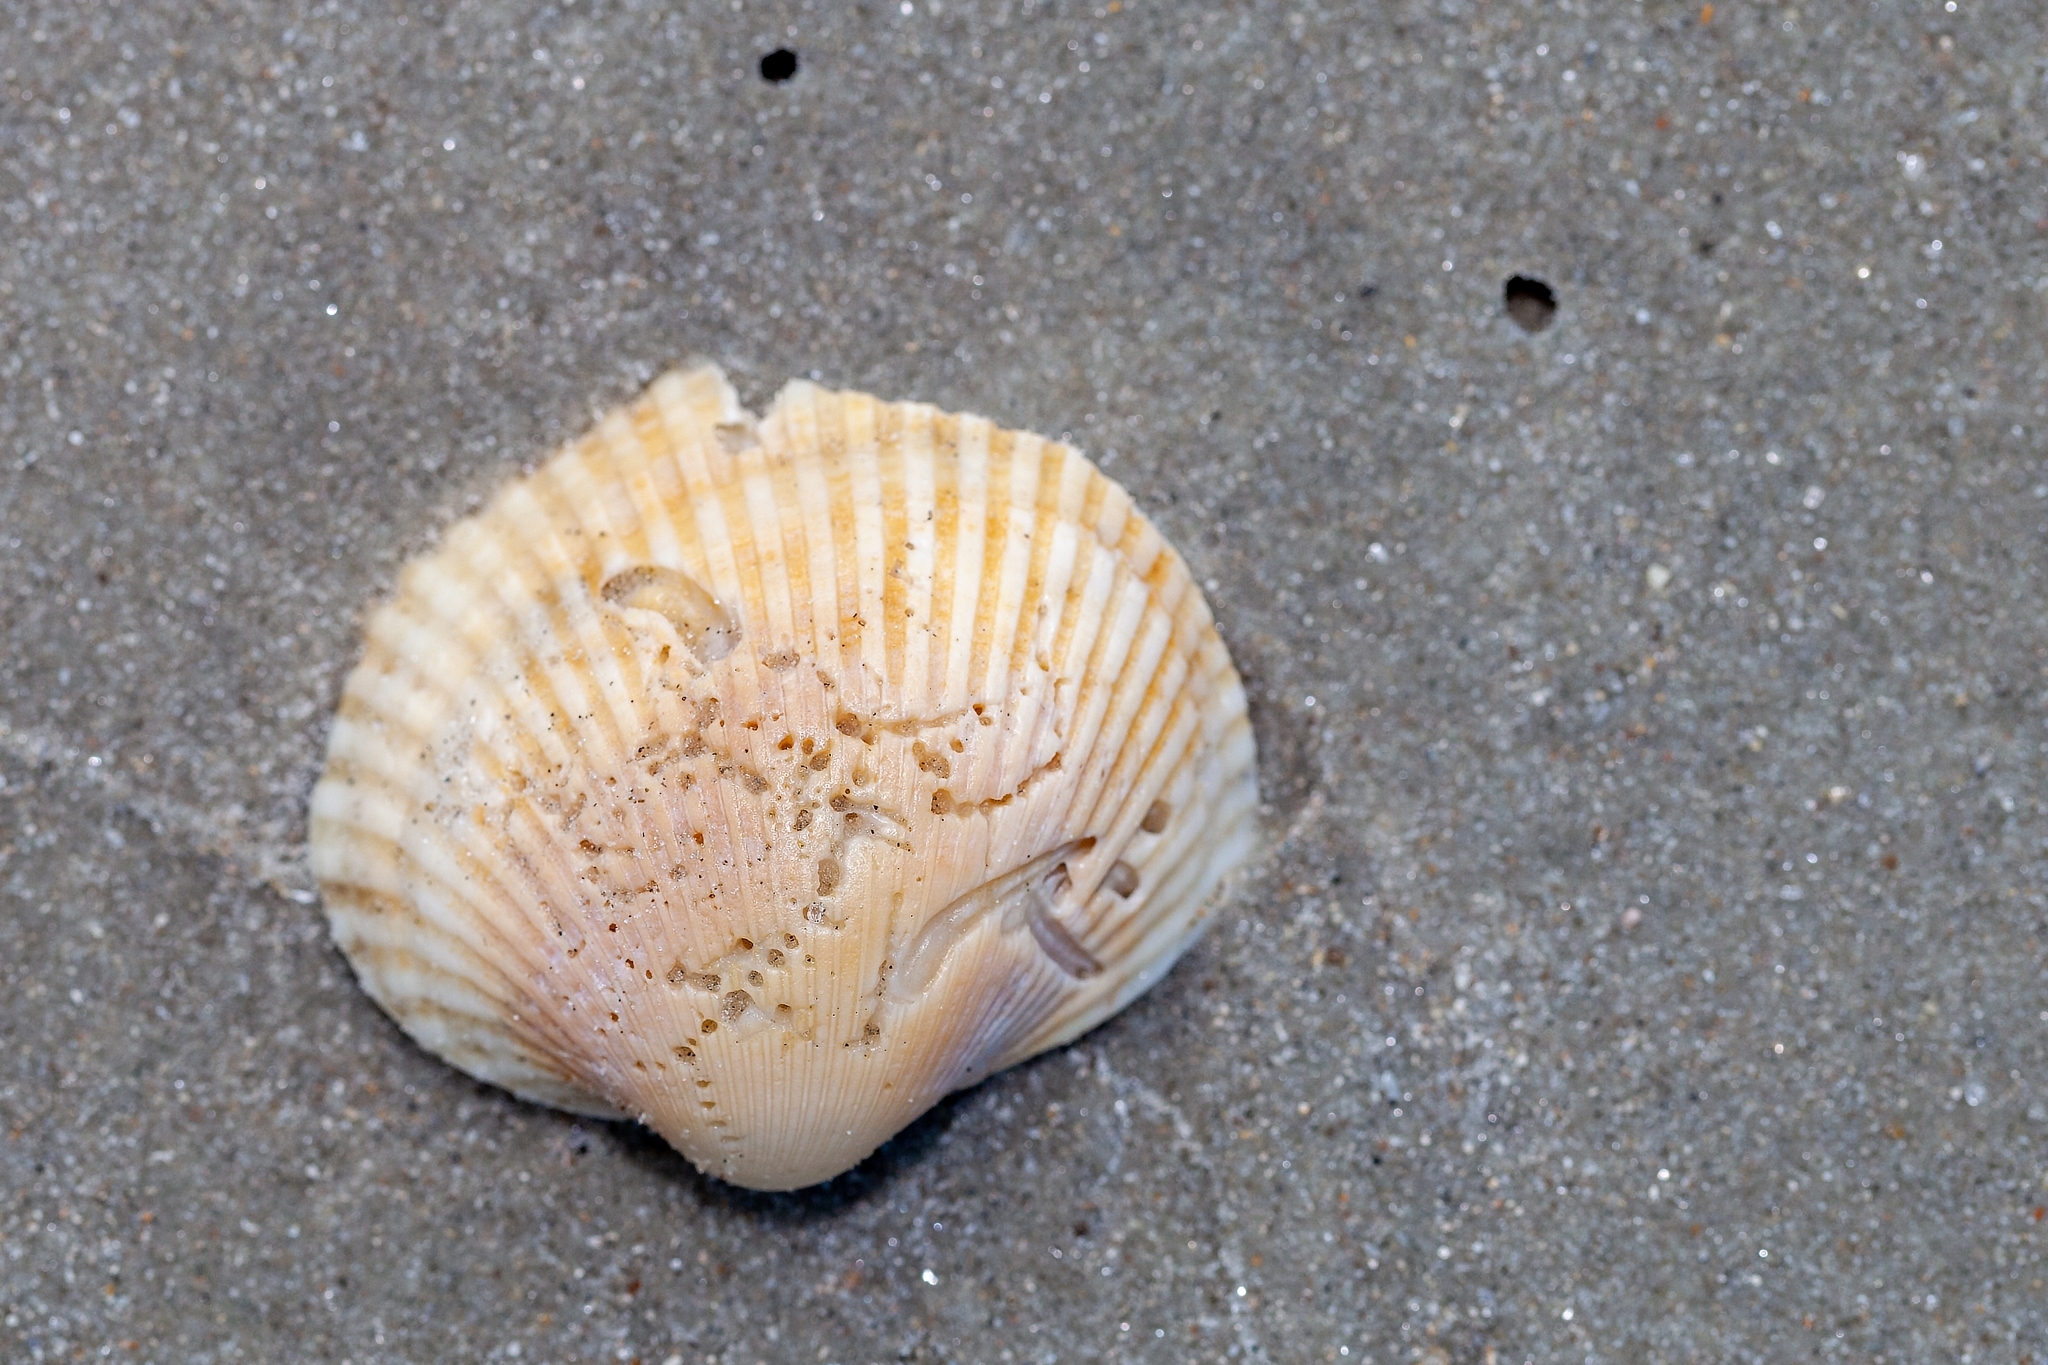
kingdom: Animalia
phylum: Mollusca
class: Bivalvia
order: Arcida
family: Arcidae
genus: Lunarca
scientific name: Lunarca ovalis
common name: Blood ark
